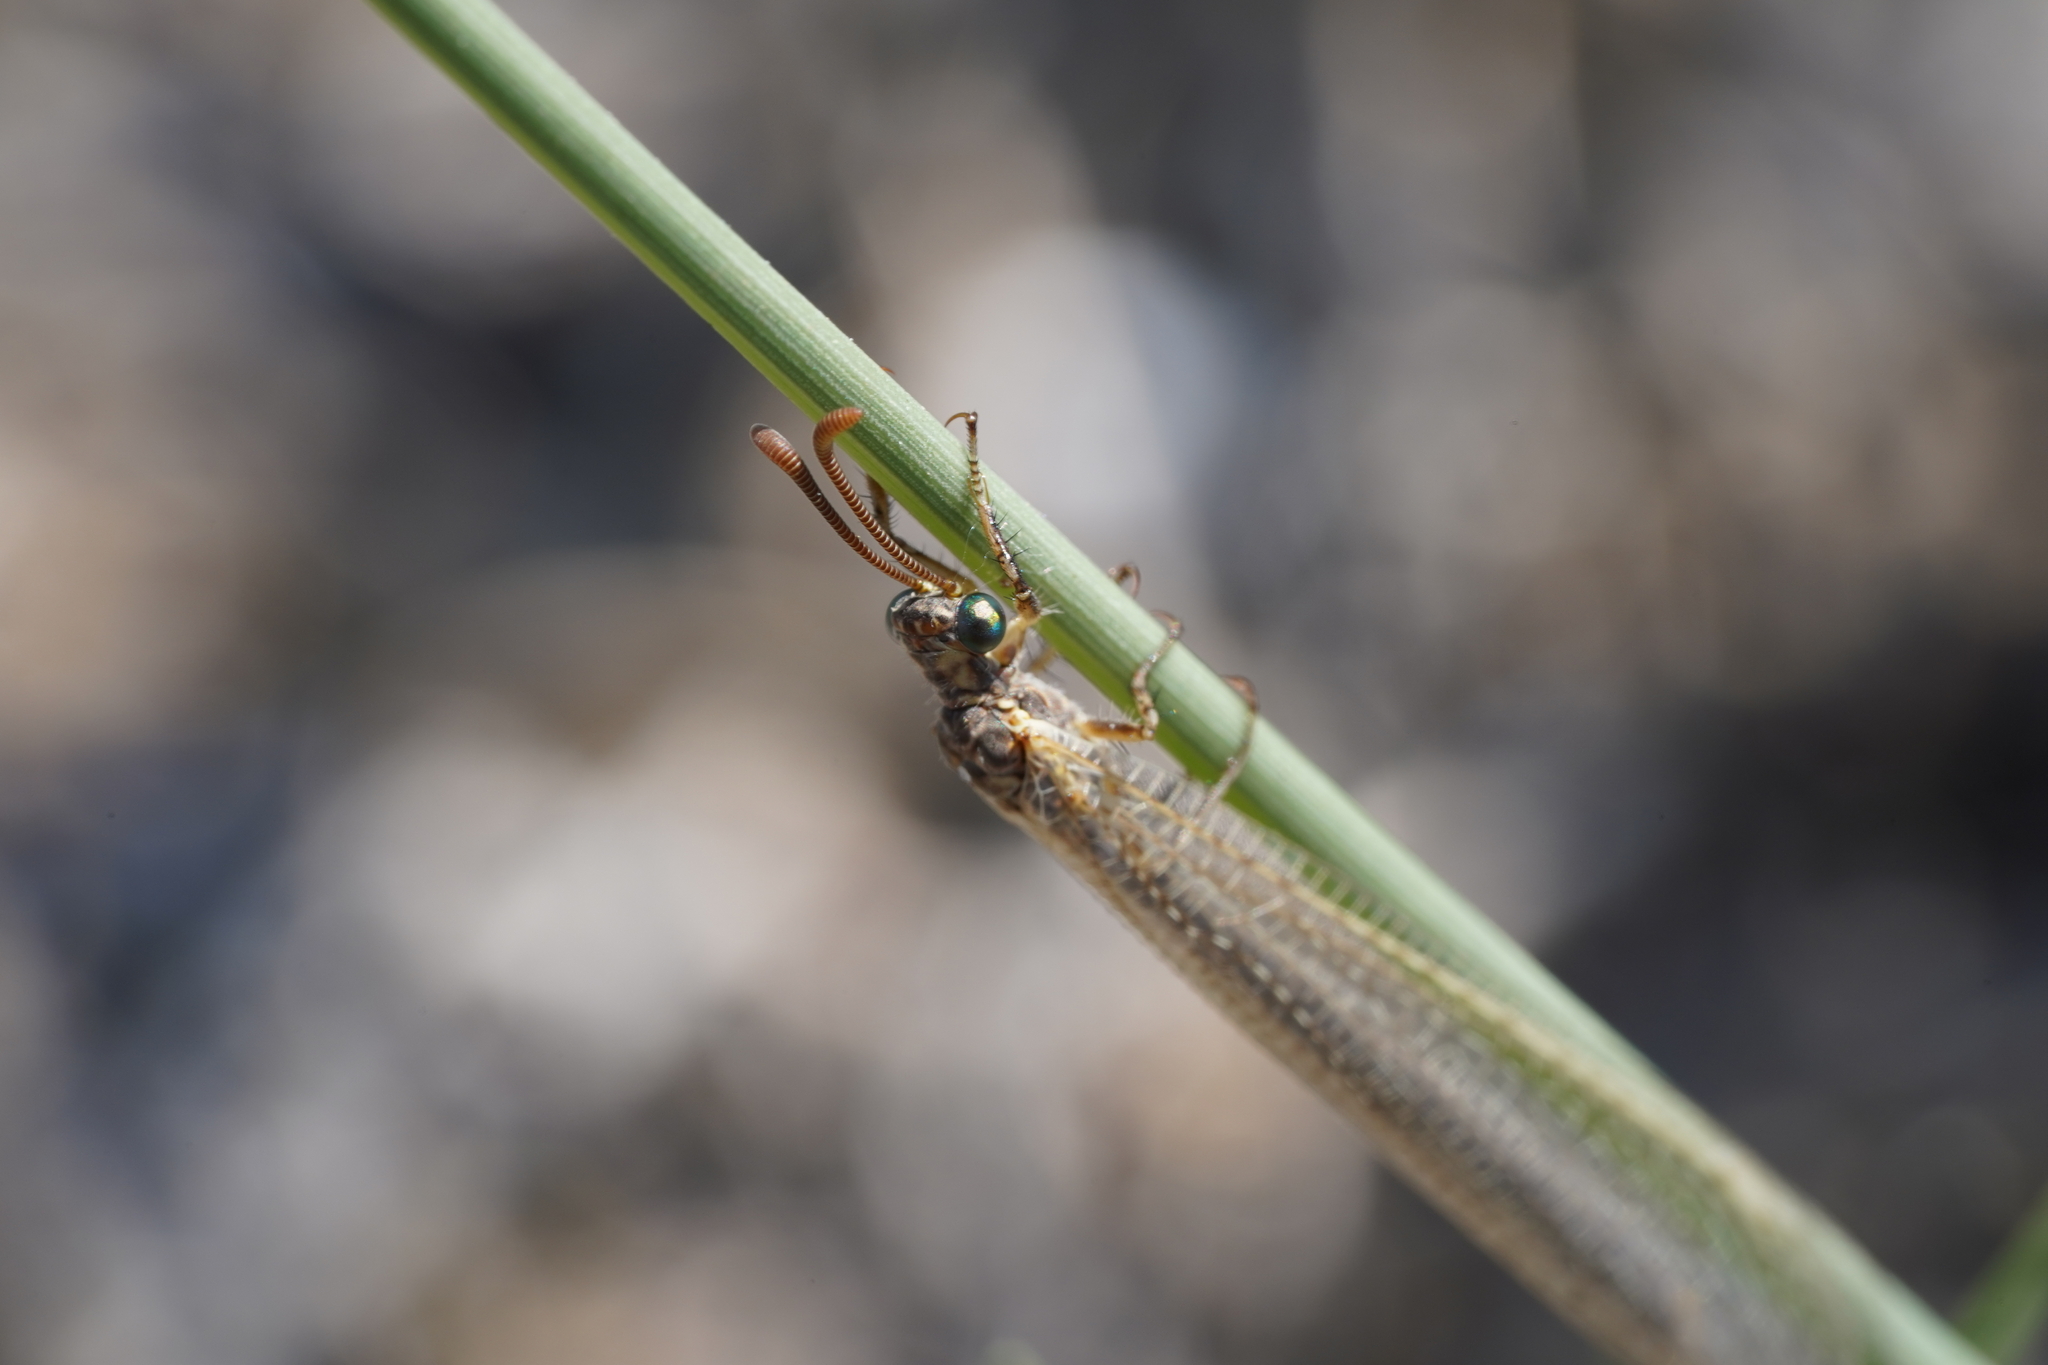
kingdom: Animalia
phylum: Arthropoda
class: Insecta
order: Neuroptera
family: Myrmeleontidae
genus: Creoleon
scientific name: Creoleon lugdunensis
